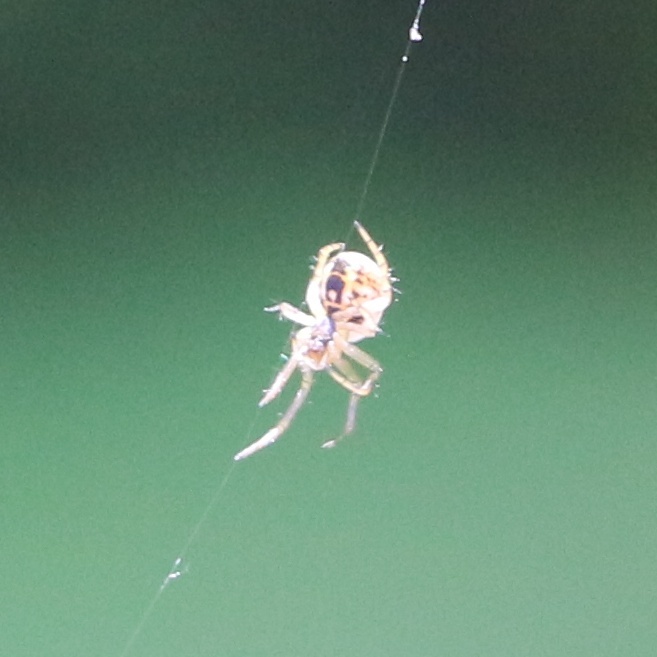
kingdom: Animalia
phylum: Arthropoda
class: Arachnida
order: Araneae
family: Araneidae
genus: Mangora
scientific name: Mangora acalypha
